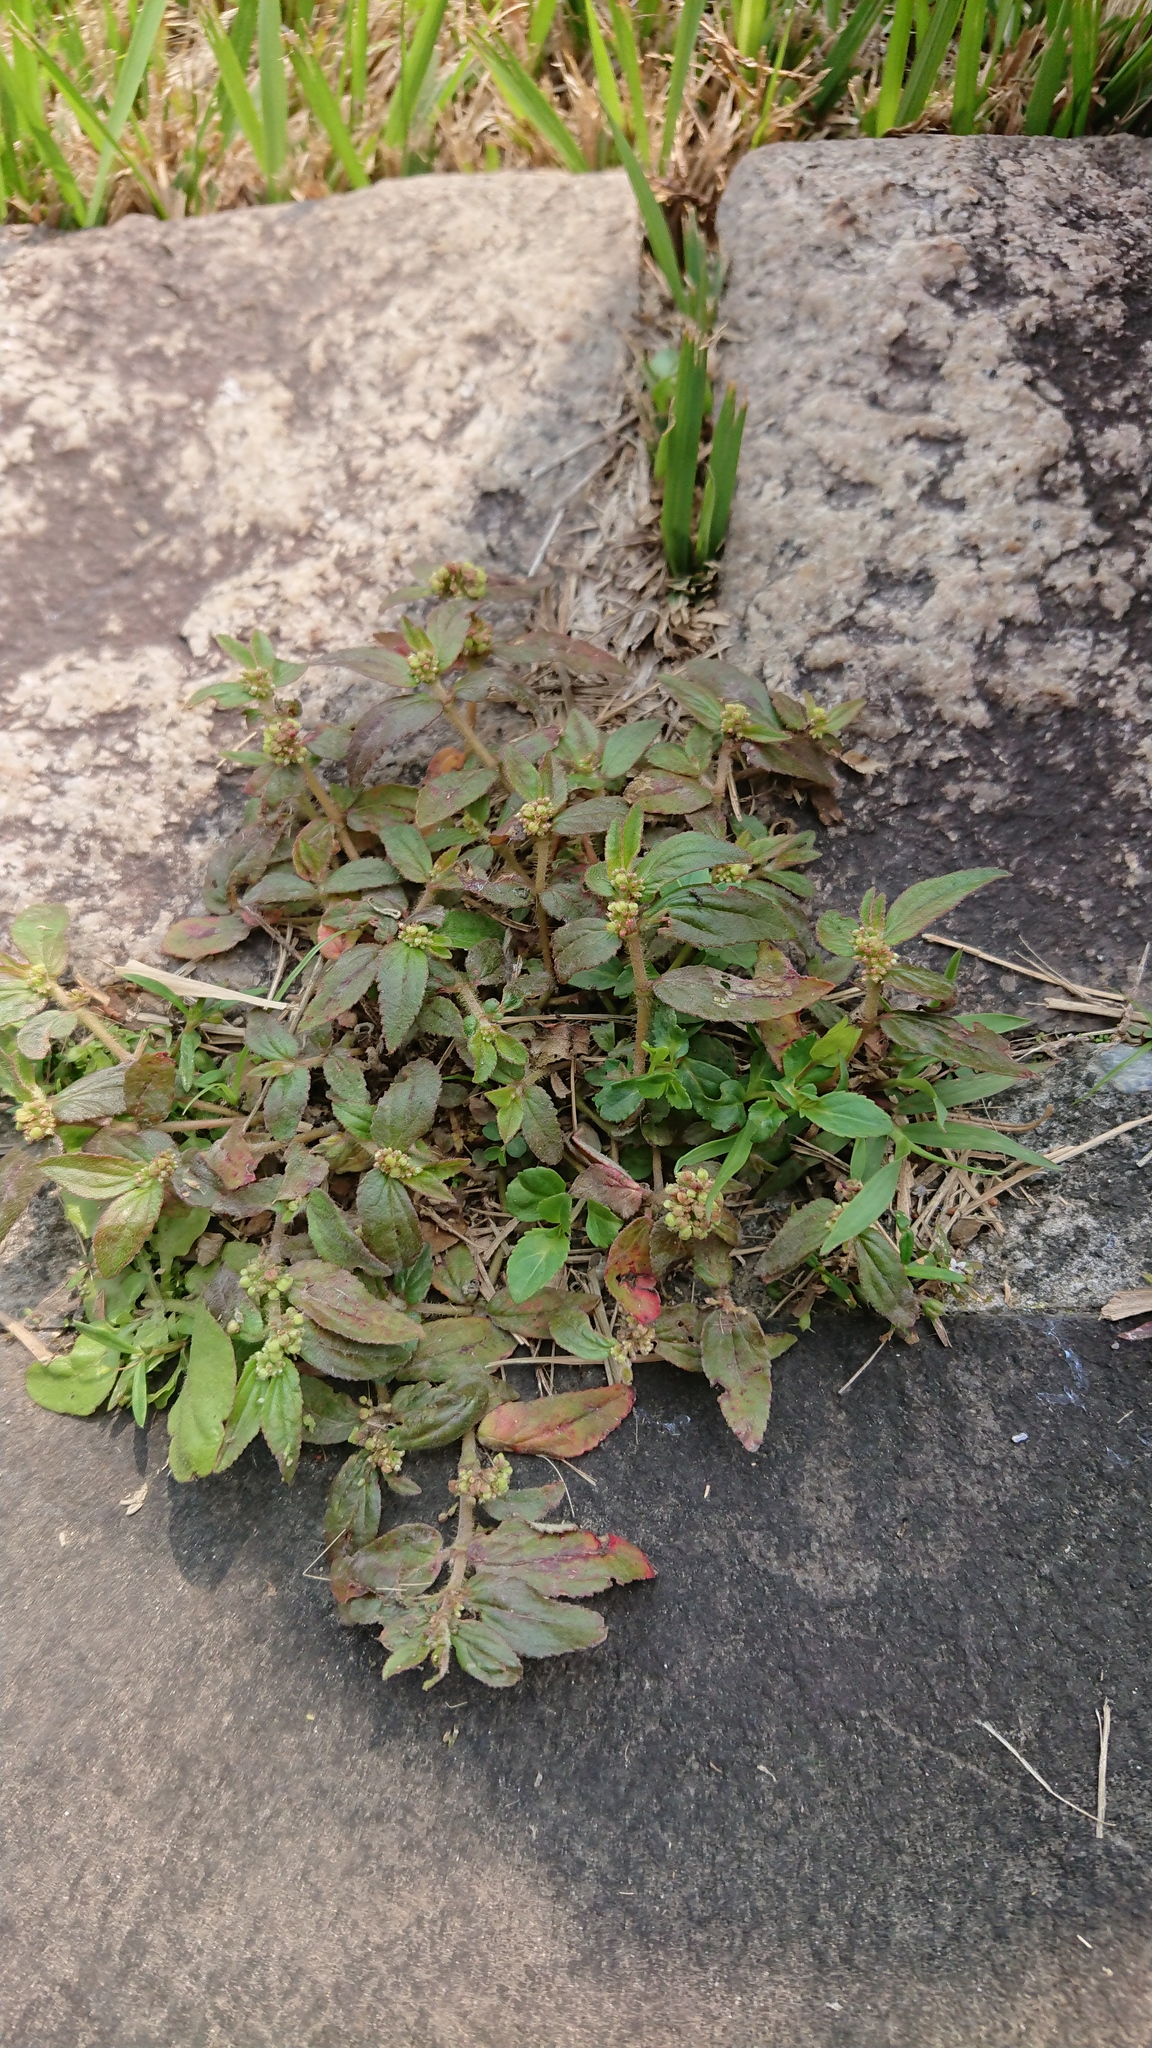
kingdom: Plantae
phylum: Tracheophyta
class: Magnoliopsida
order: Malpighiales
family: Euphorbiaceae
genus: Euphorbia
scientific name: Euphorbia hirta
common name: Pillpod sandmat
